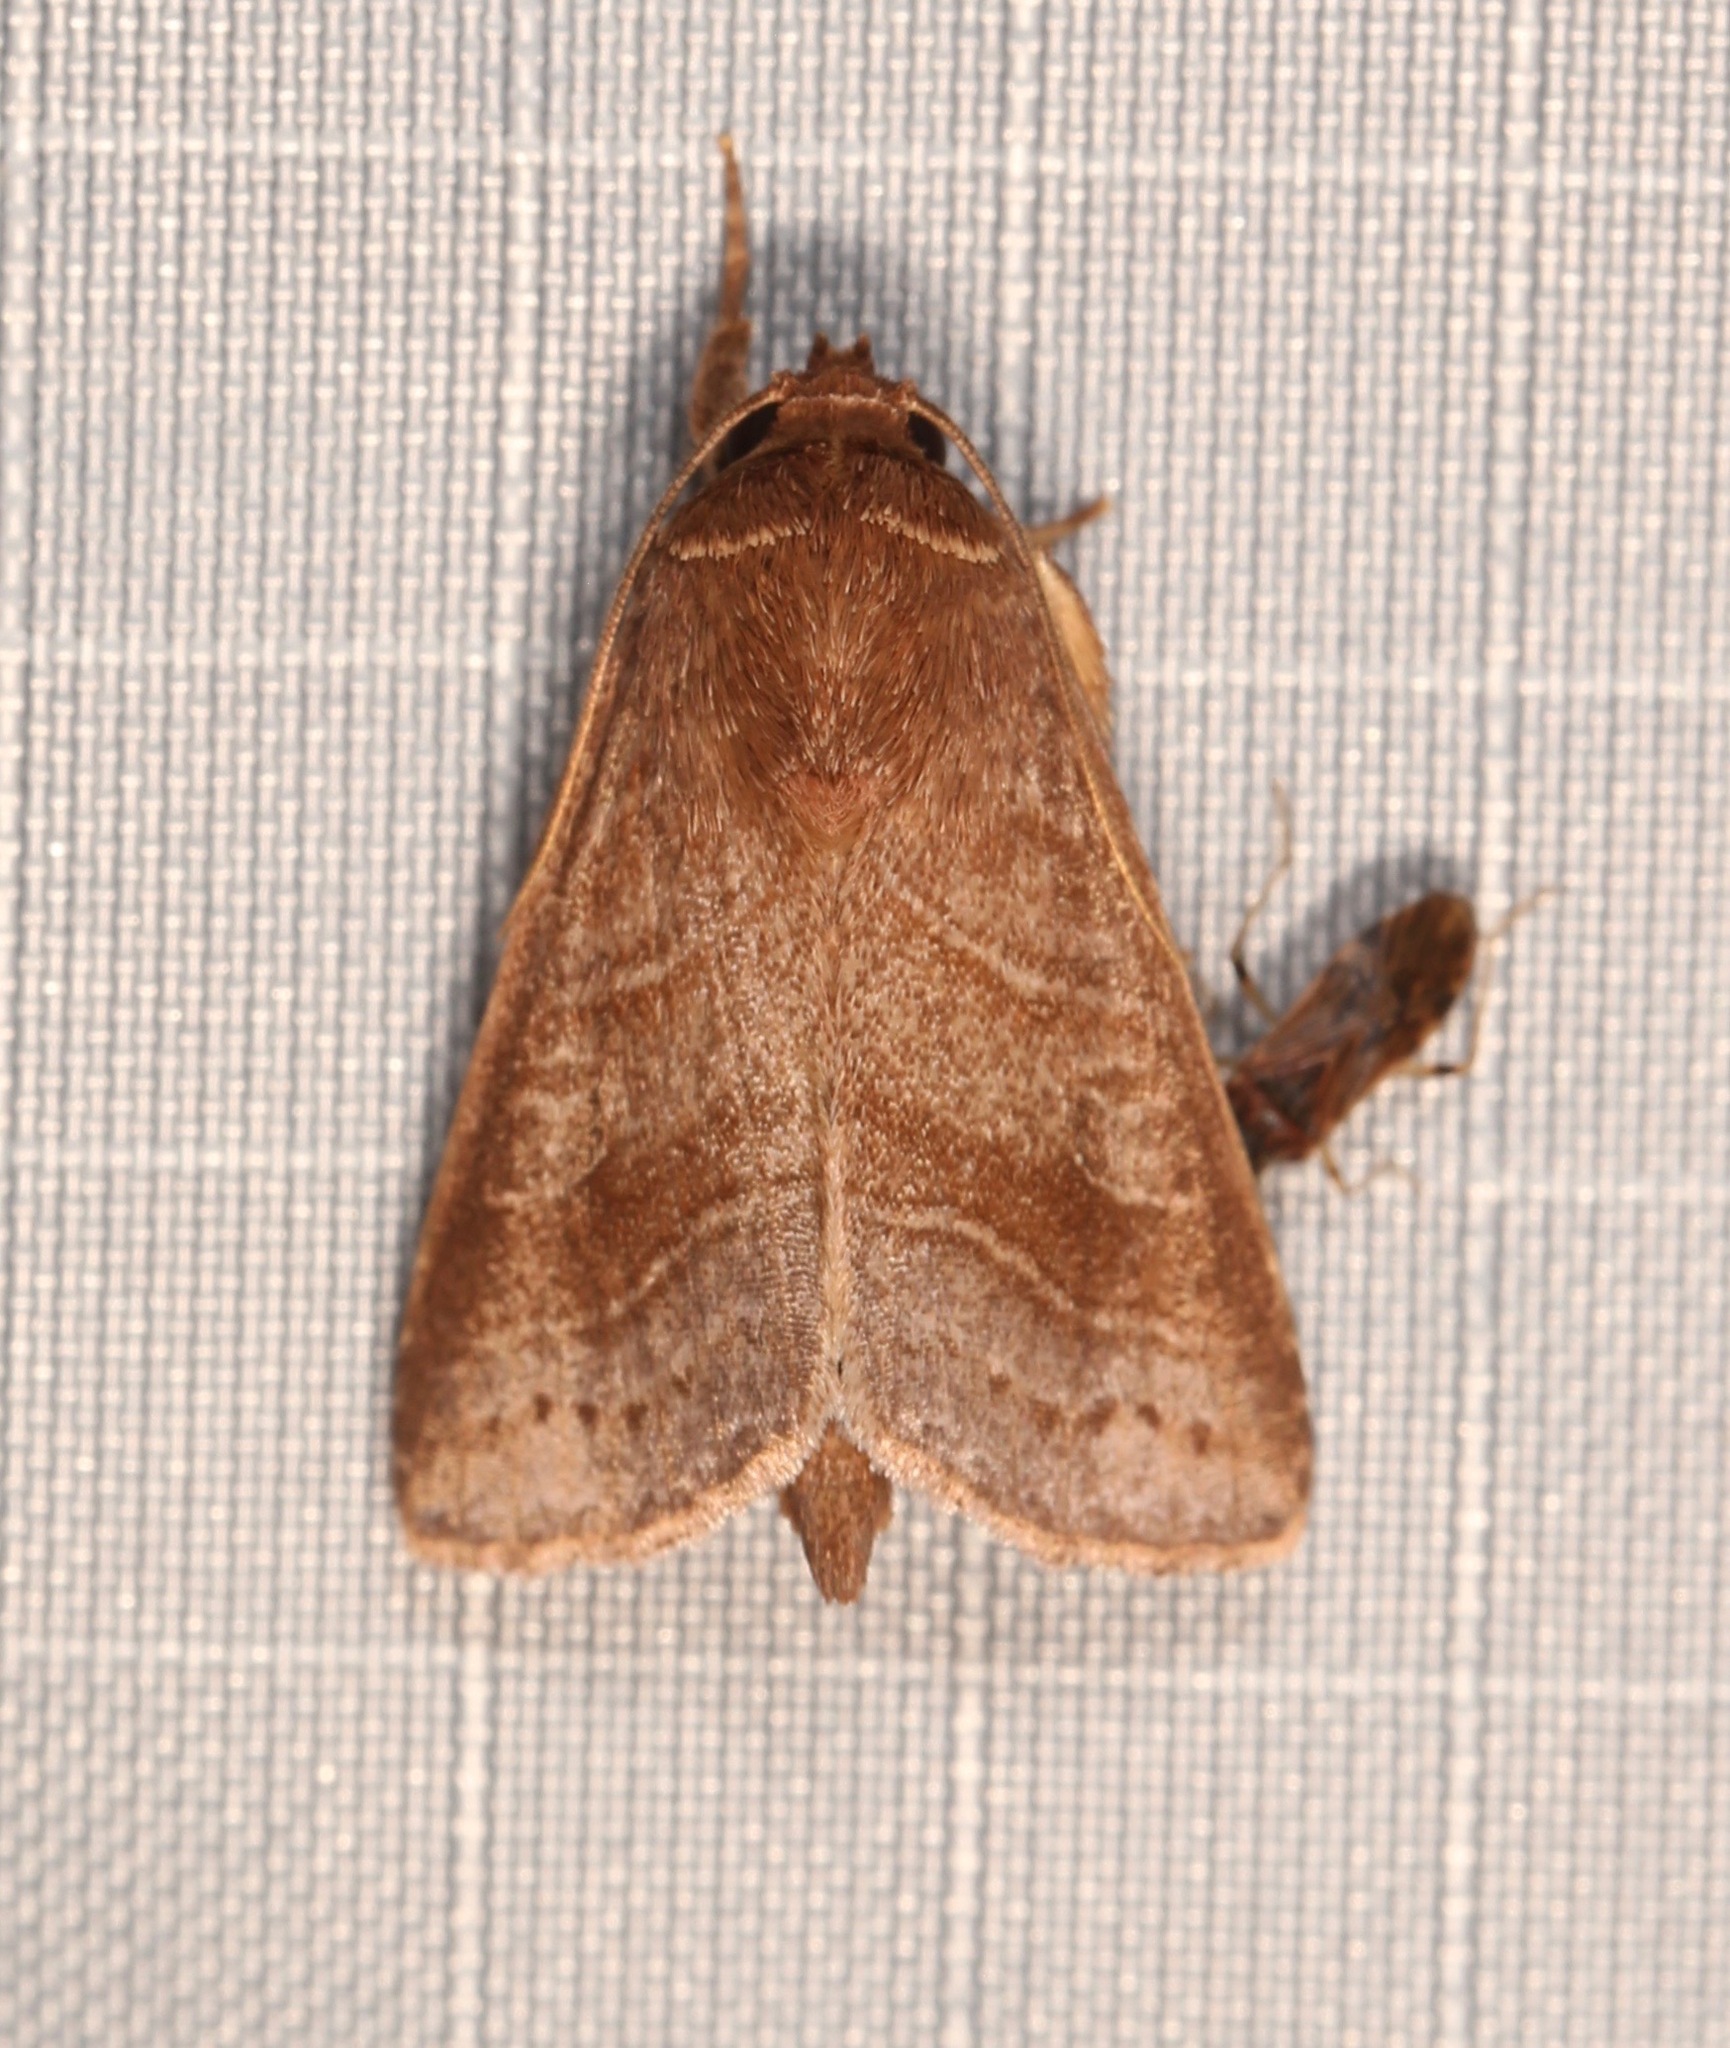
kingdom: Animalia
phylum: Arthropoda
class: Insecta
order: Lepidoptera
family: Noctuidae
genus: Phuphena
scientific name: Phuphena tura
